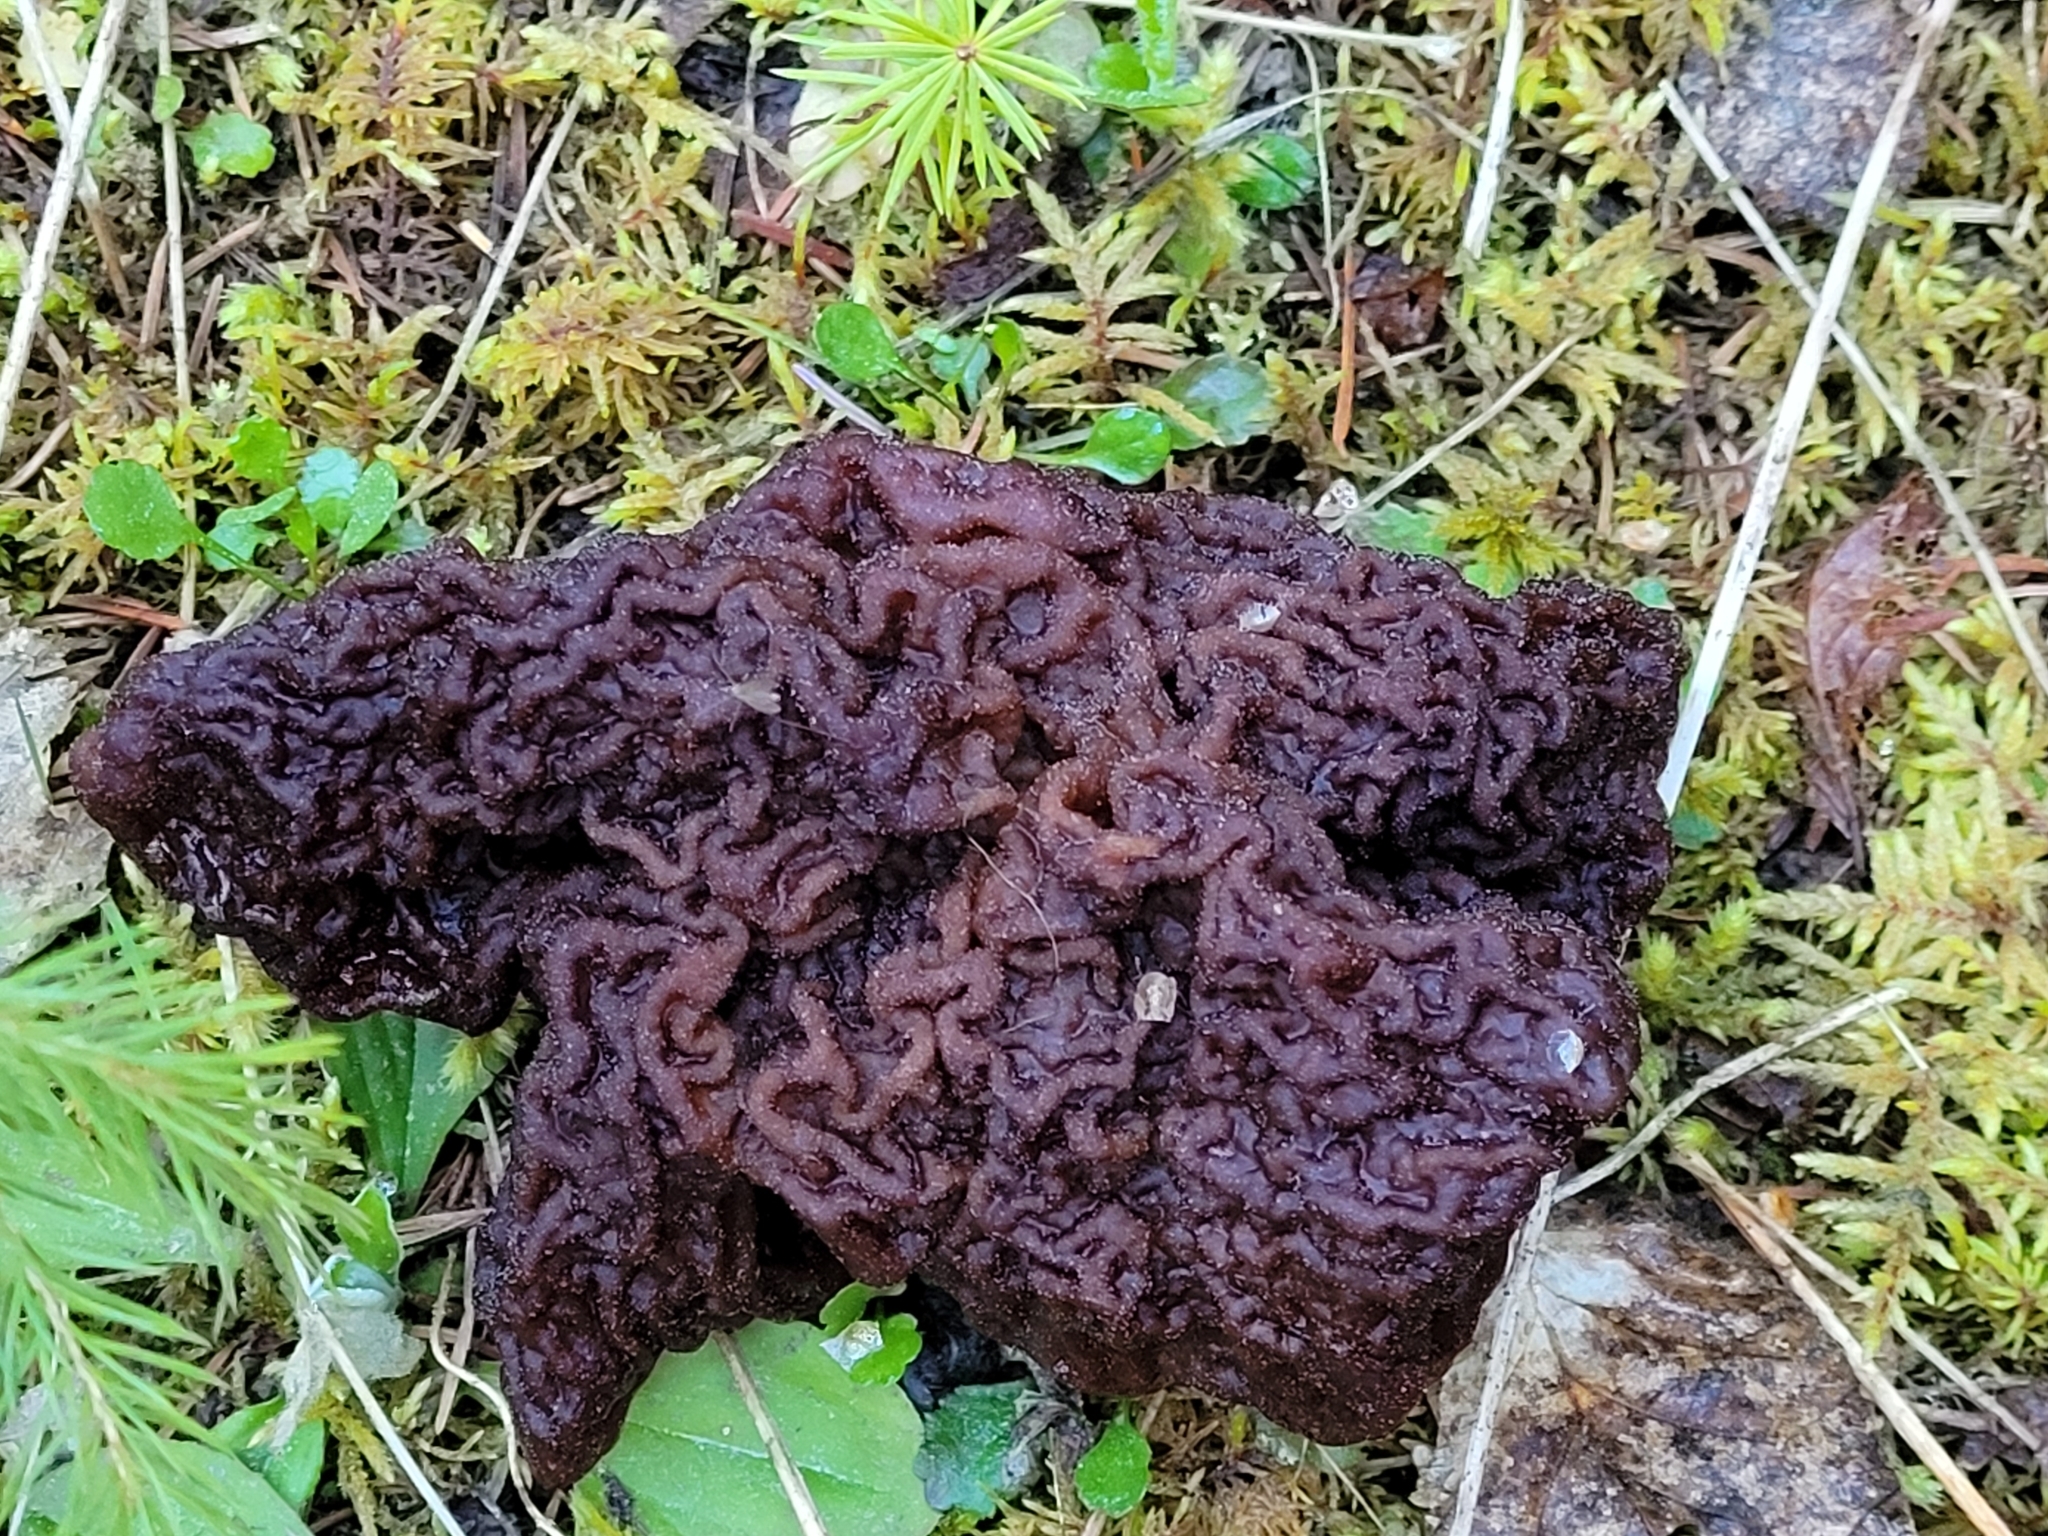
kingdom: Fungi
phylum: Ascomycota
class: Pezizomycetes
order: Pezizales
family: Discinaceae
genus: Gyromitra
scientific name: Gyromitra esculenta
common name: False morel
